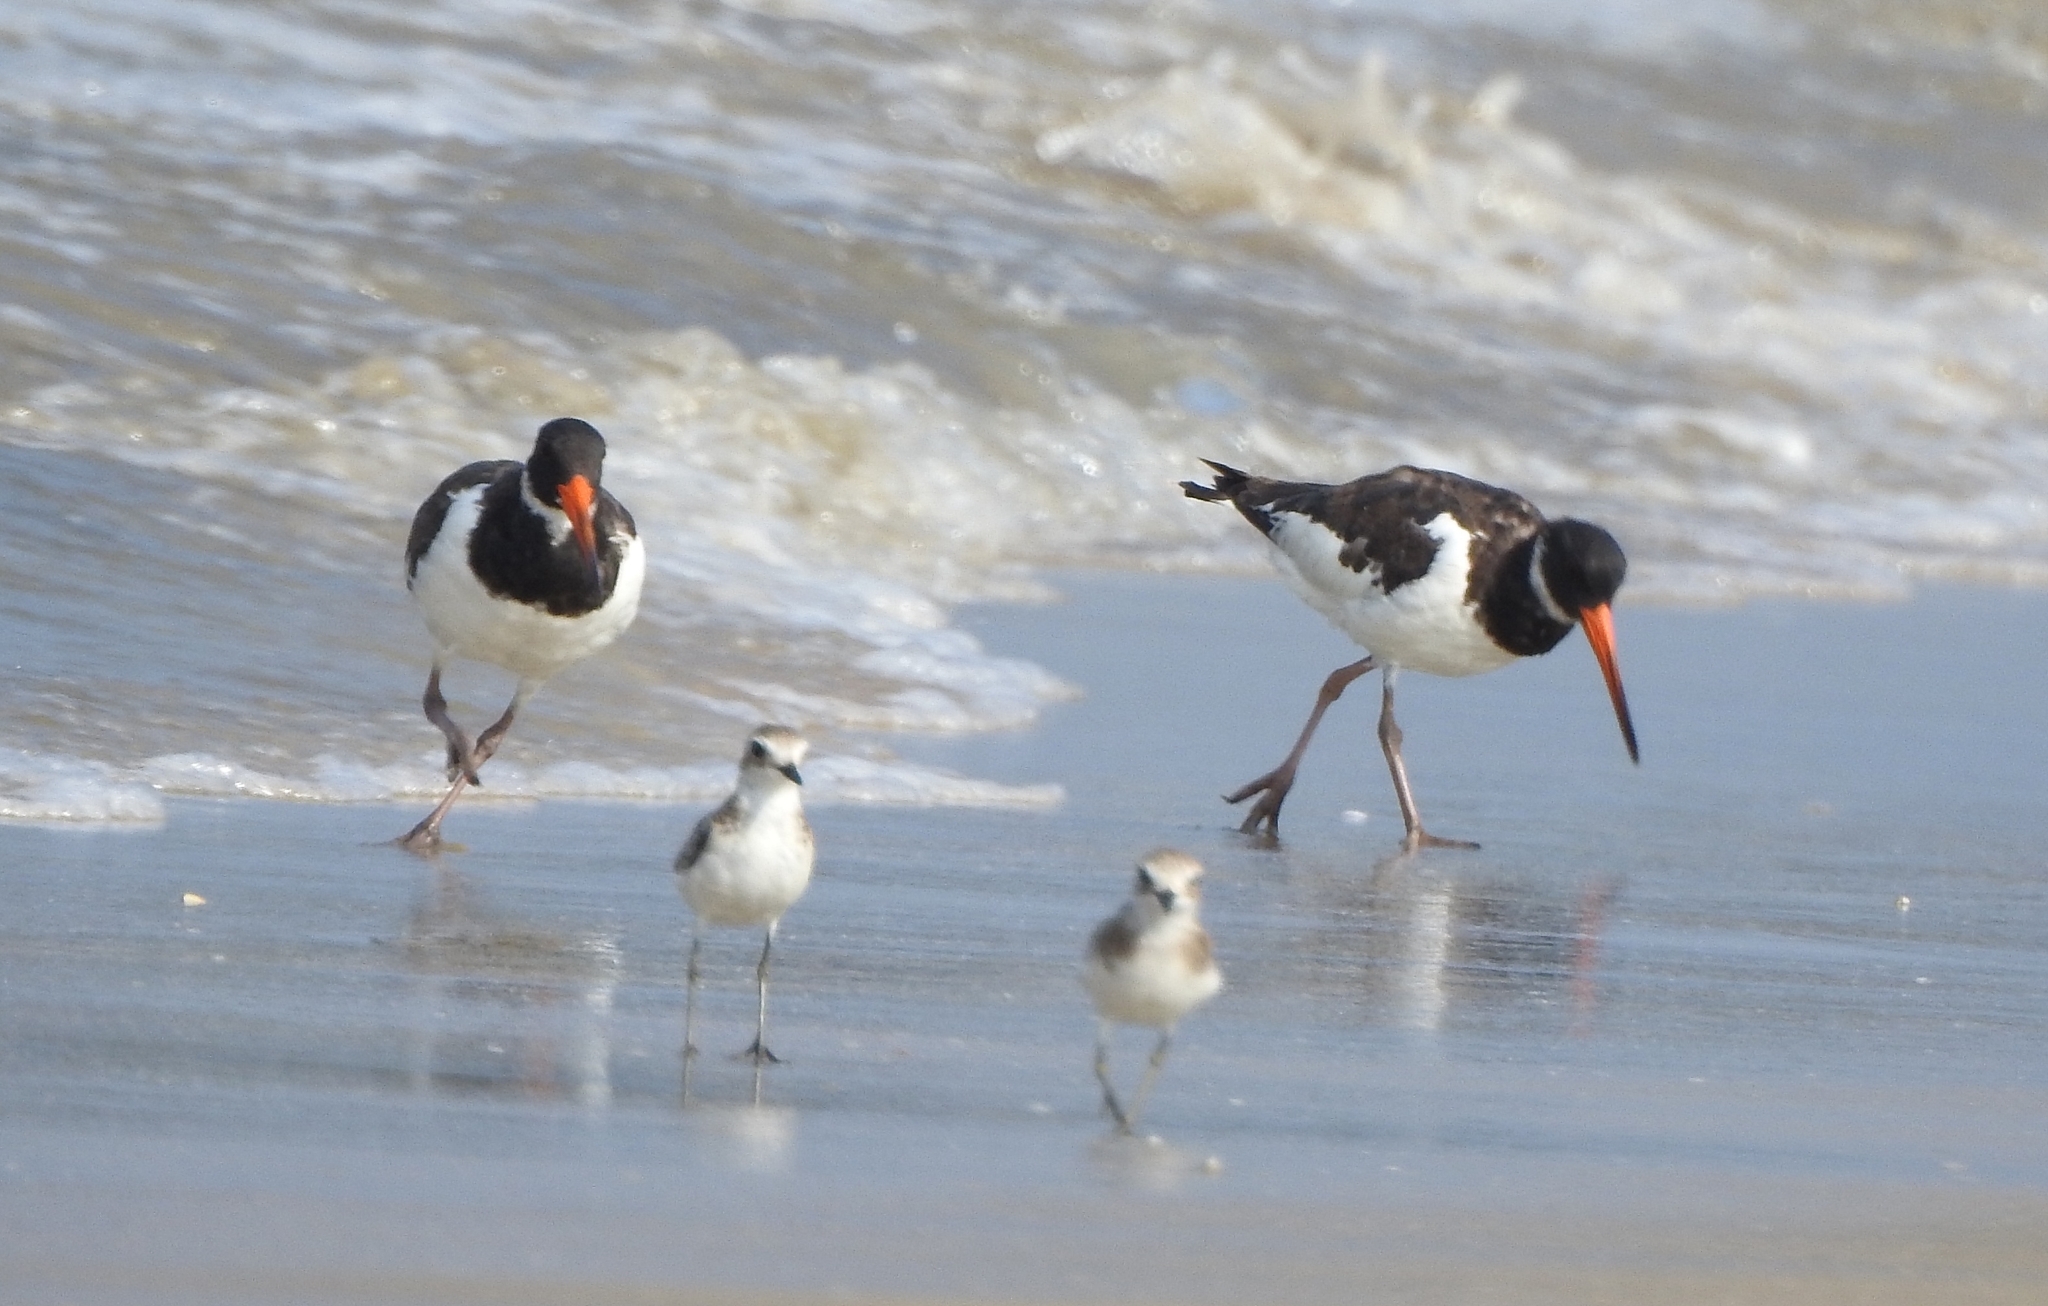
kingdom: Animalia
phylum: Chordata
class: Aves
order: Charadriiformes
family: Haematopodidae
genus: Haematopus
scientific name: Haematopus ostralegus
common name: Eurasian oystercatcher
